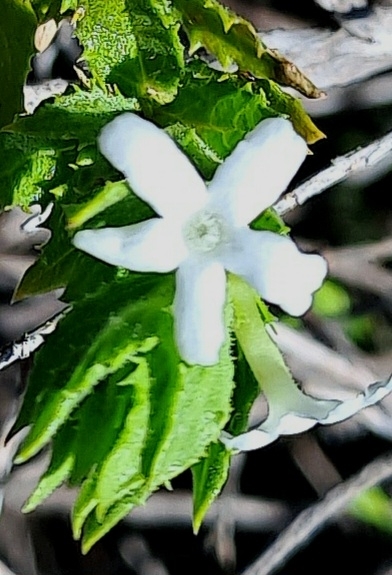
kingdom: Plantae
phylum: Tracheophyta
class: Magnoliopsida
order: Lamiales
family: Scrophulariaceae
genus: Oftia
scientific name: Oftia africana
